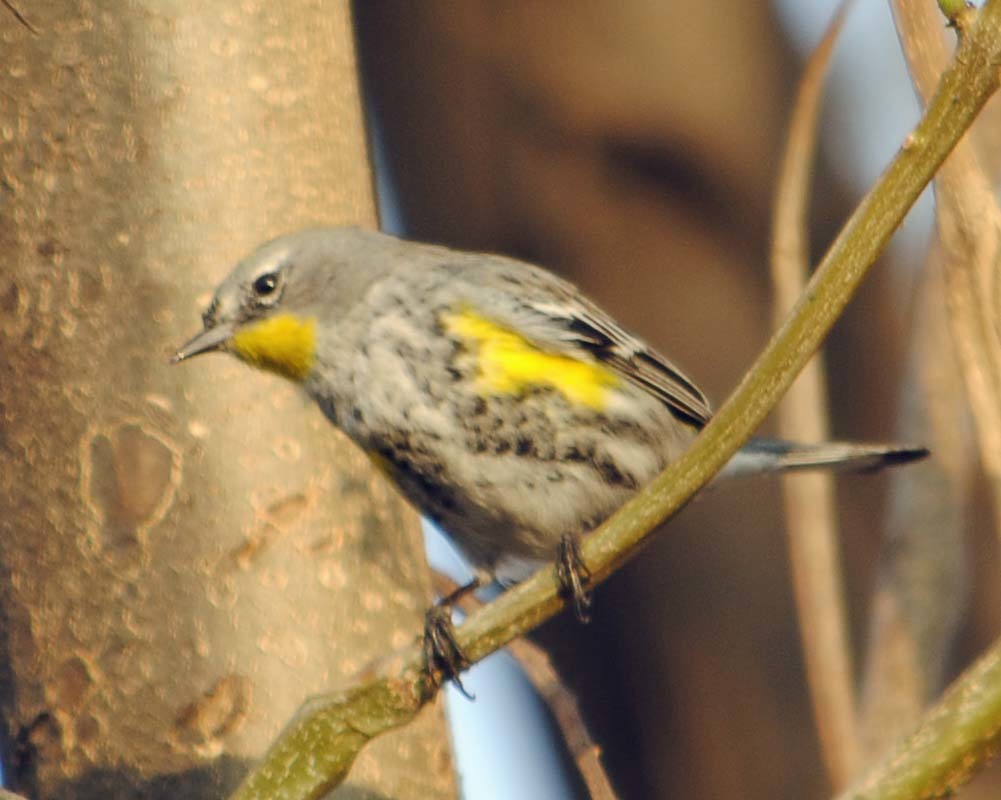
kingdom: Animalia
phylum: Chordata
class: Aves
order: Passeriformes
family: Parulidae
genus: Setophaga
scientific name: Setophaga auduboni
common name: Audubon's warbler
